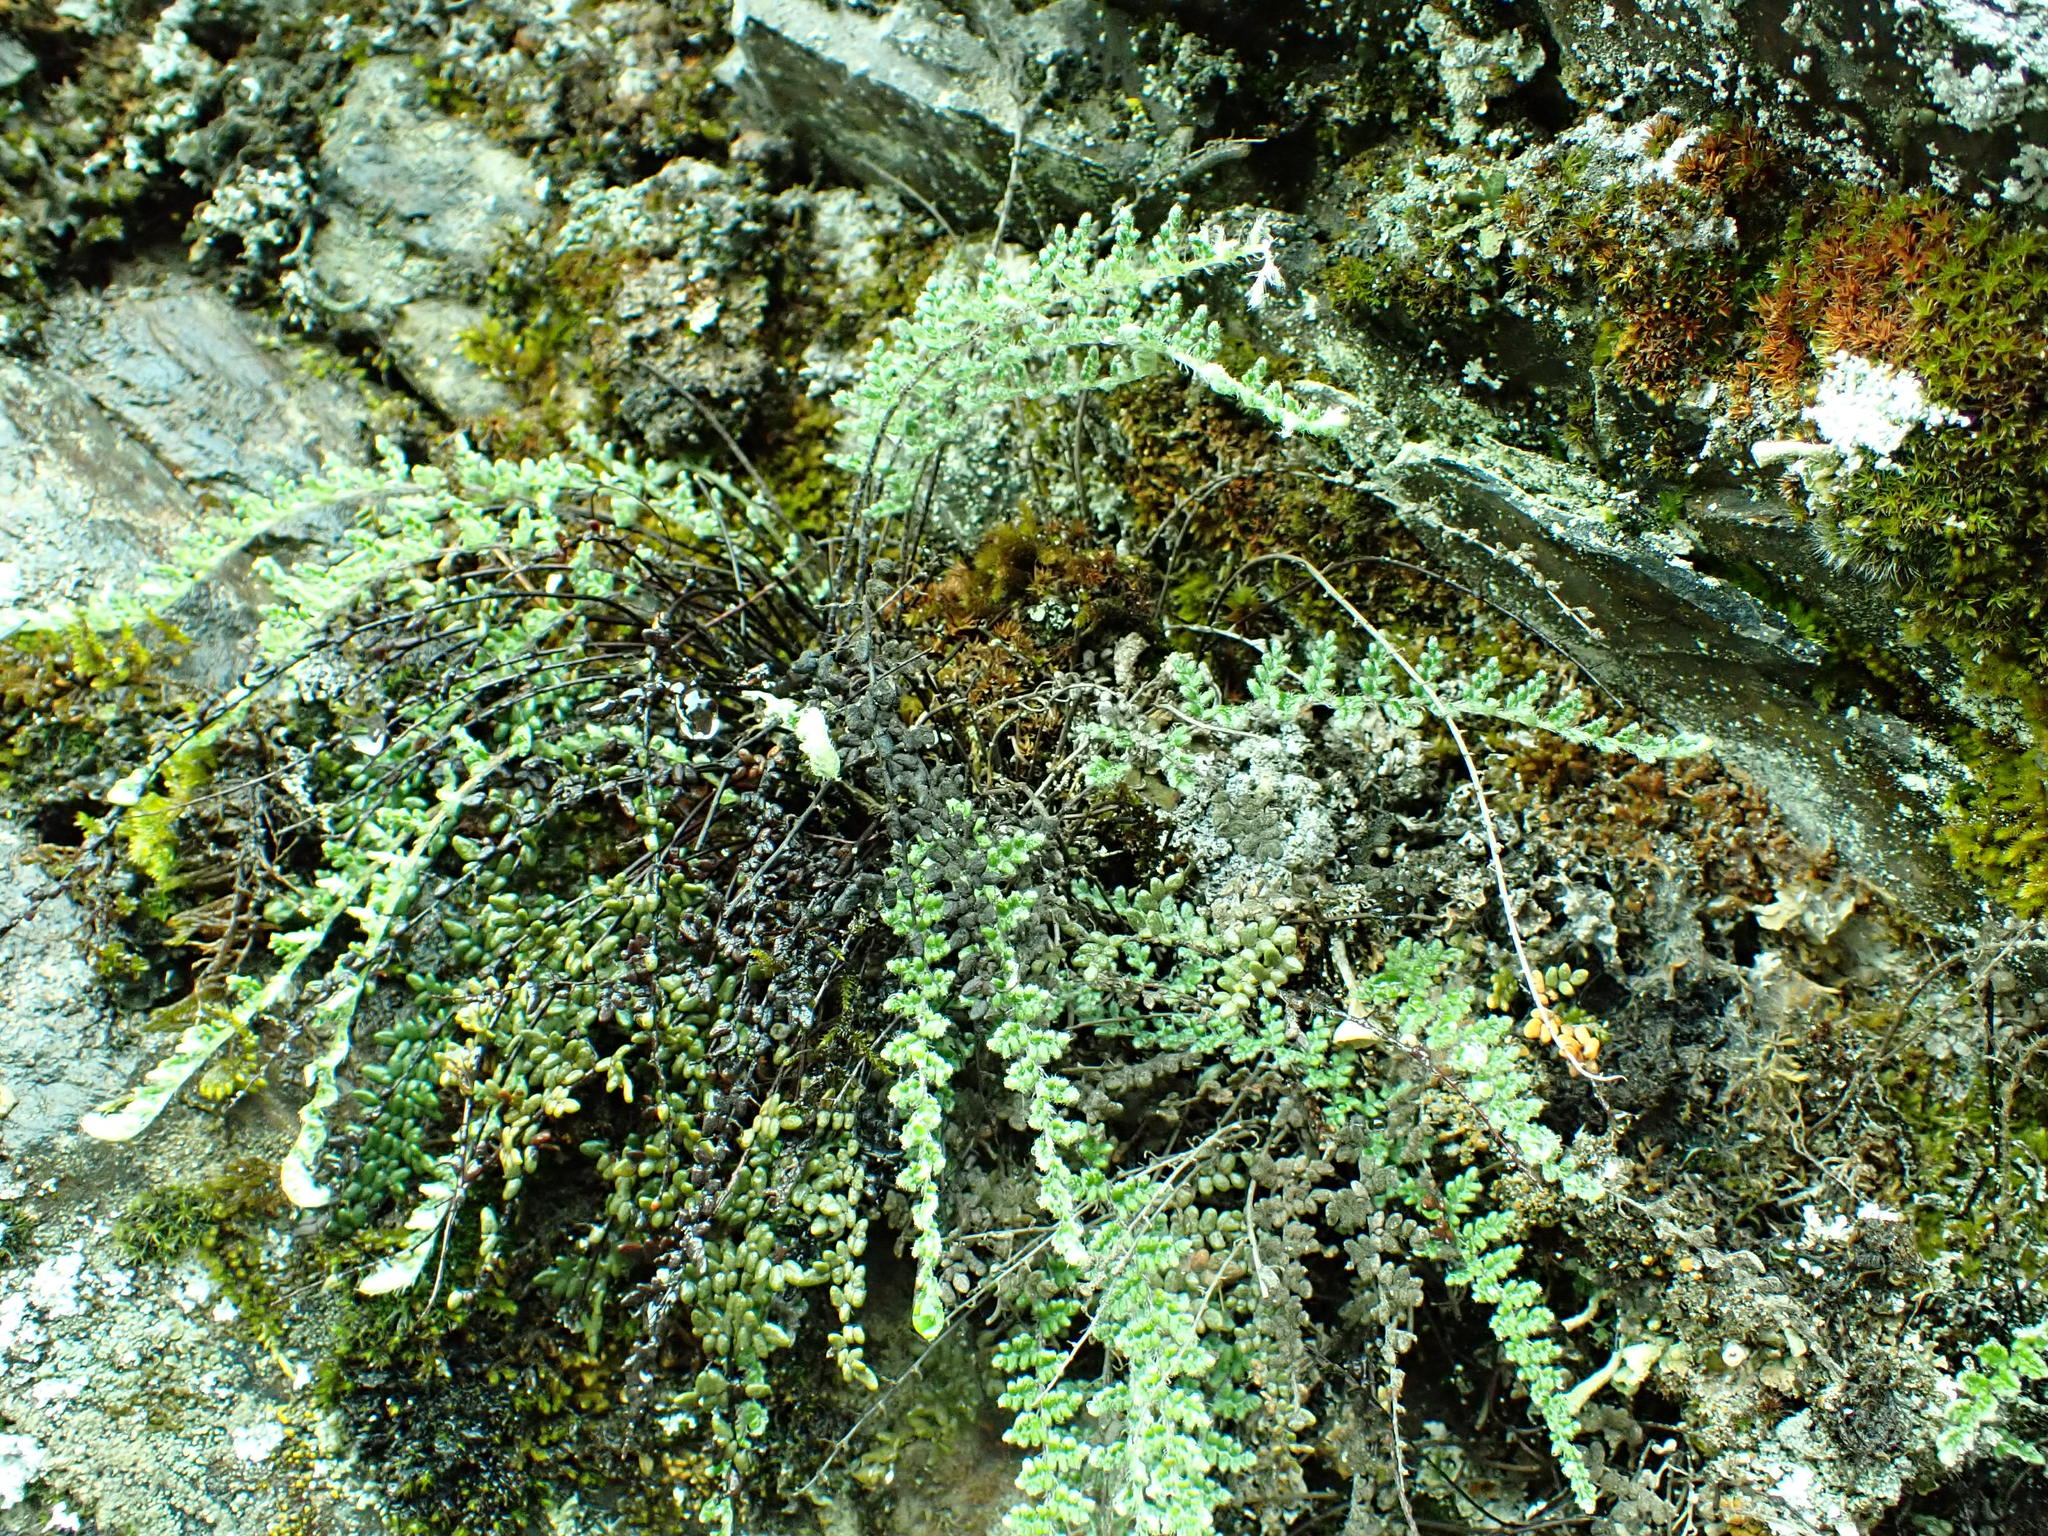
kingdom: Plantae
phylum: Tracheophyta
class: Polypodiopsida
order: Polypodiales
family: Pteridaceae
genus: Myriopteris
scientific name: Myriopteris gracillima
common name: Lace fern
